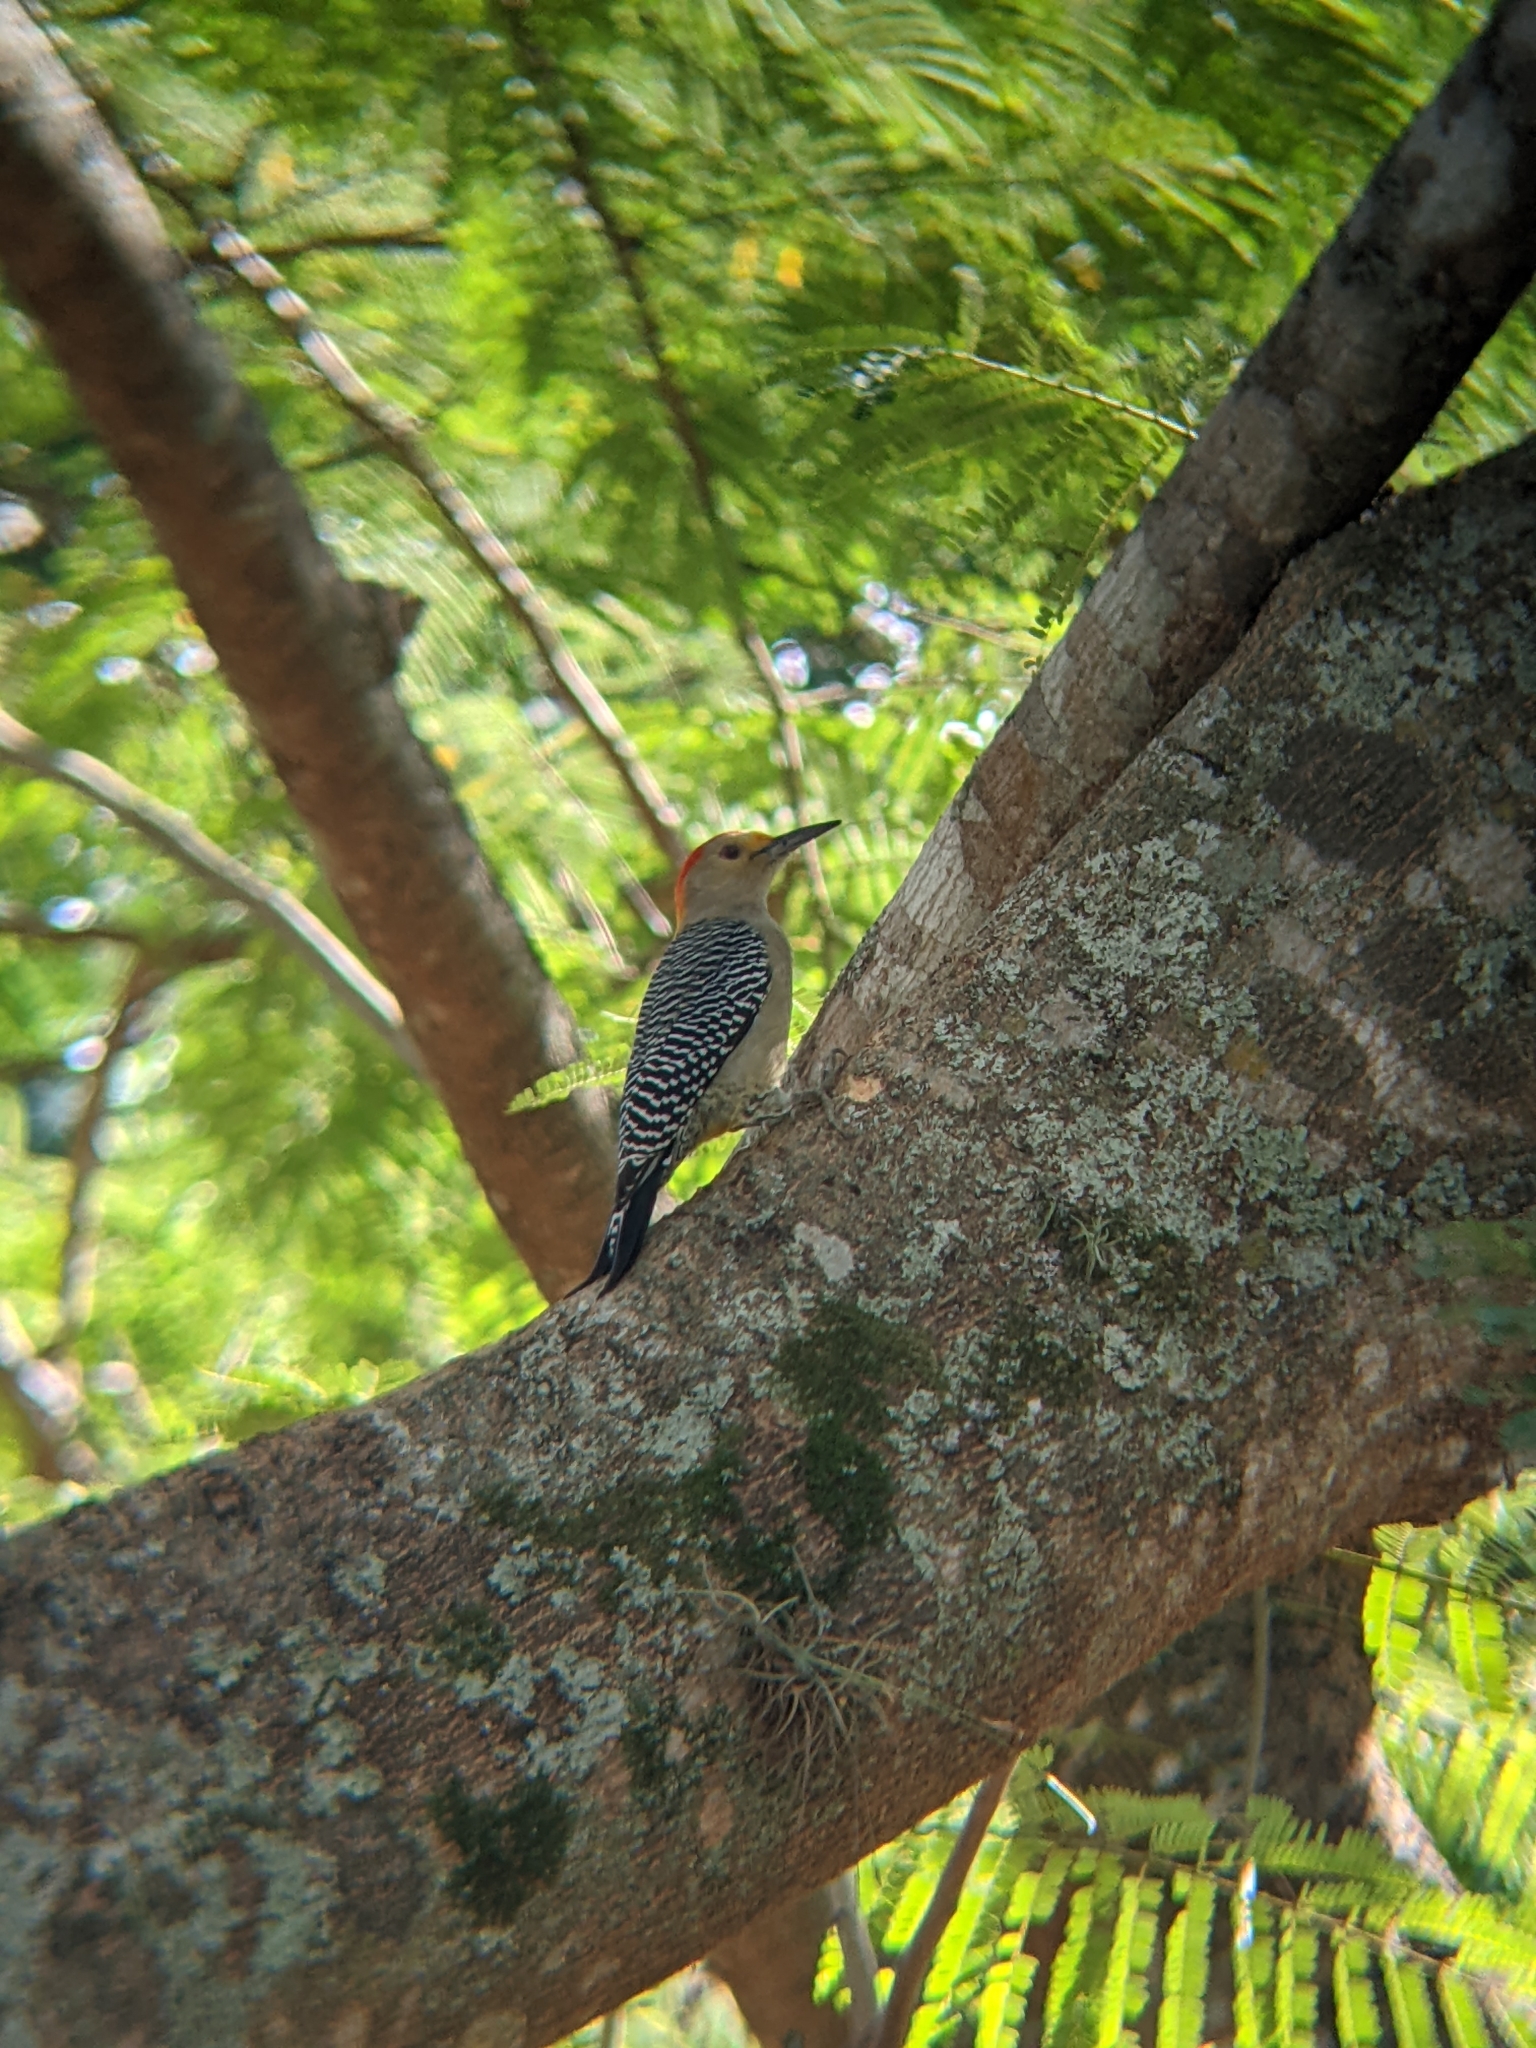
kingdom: Animalia
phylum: Chordata
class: Aves
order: Piciformes
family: Picidae
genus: Melanerpes
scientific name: Melanerpes aurifrons
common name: Golden-fronted woodpecker
